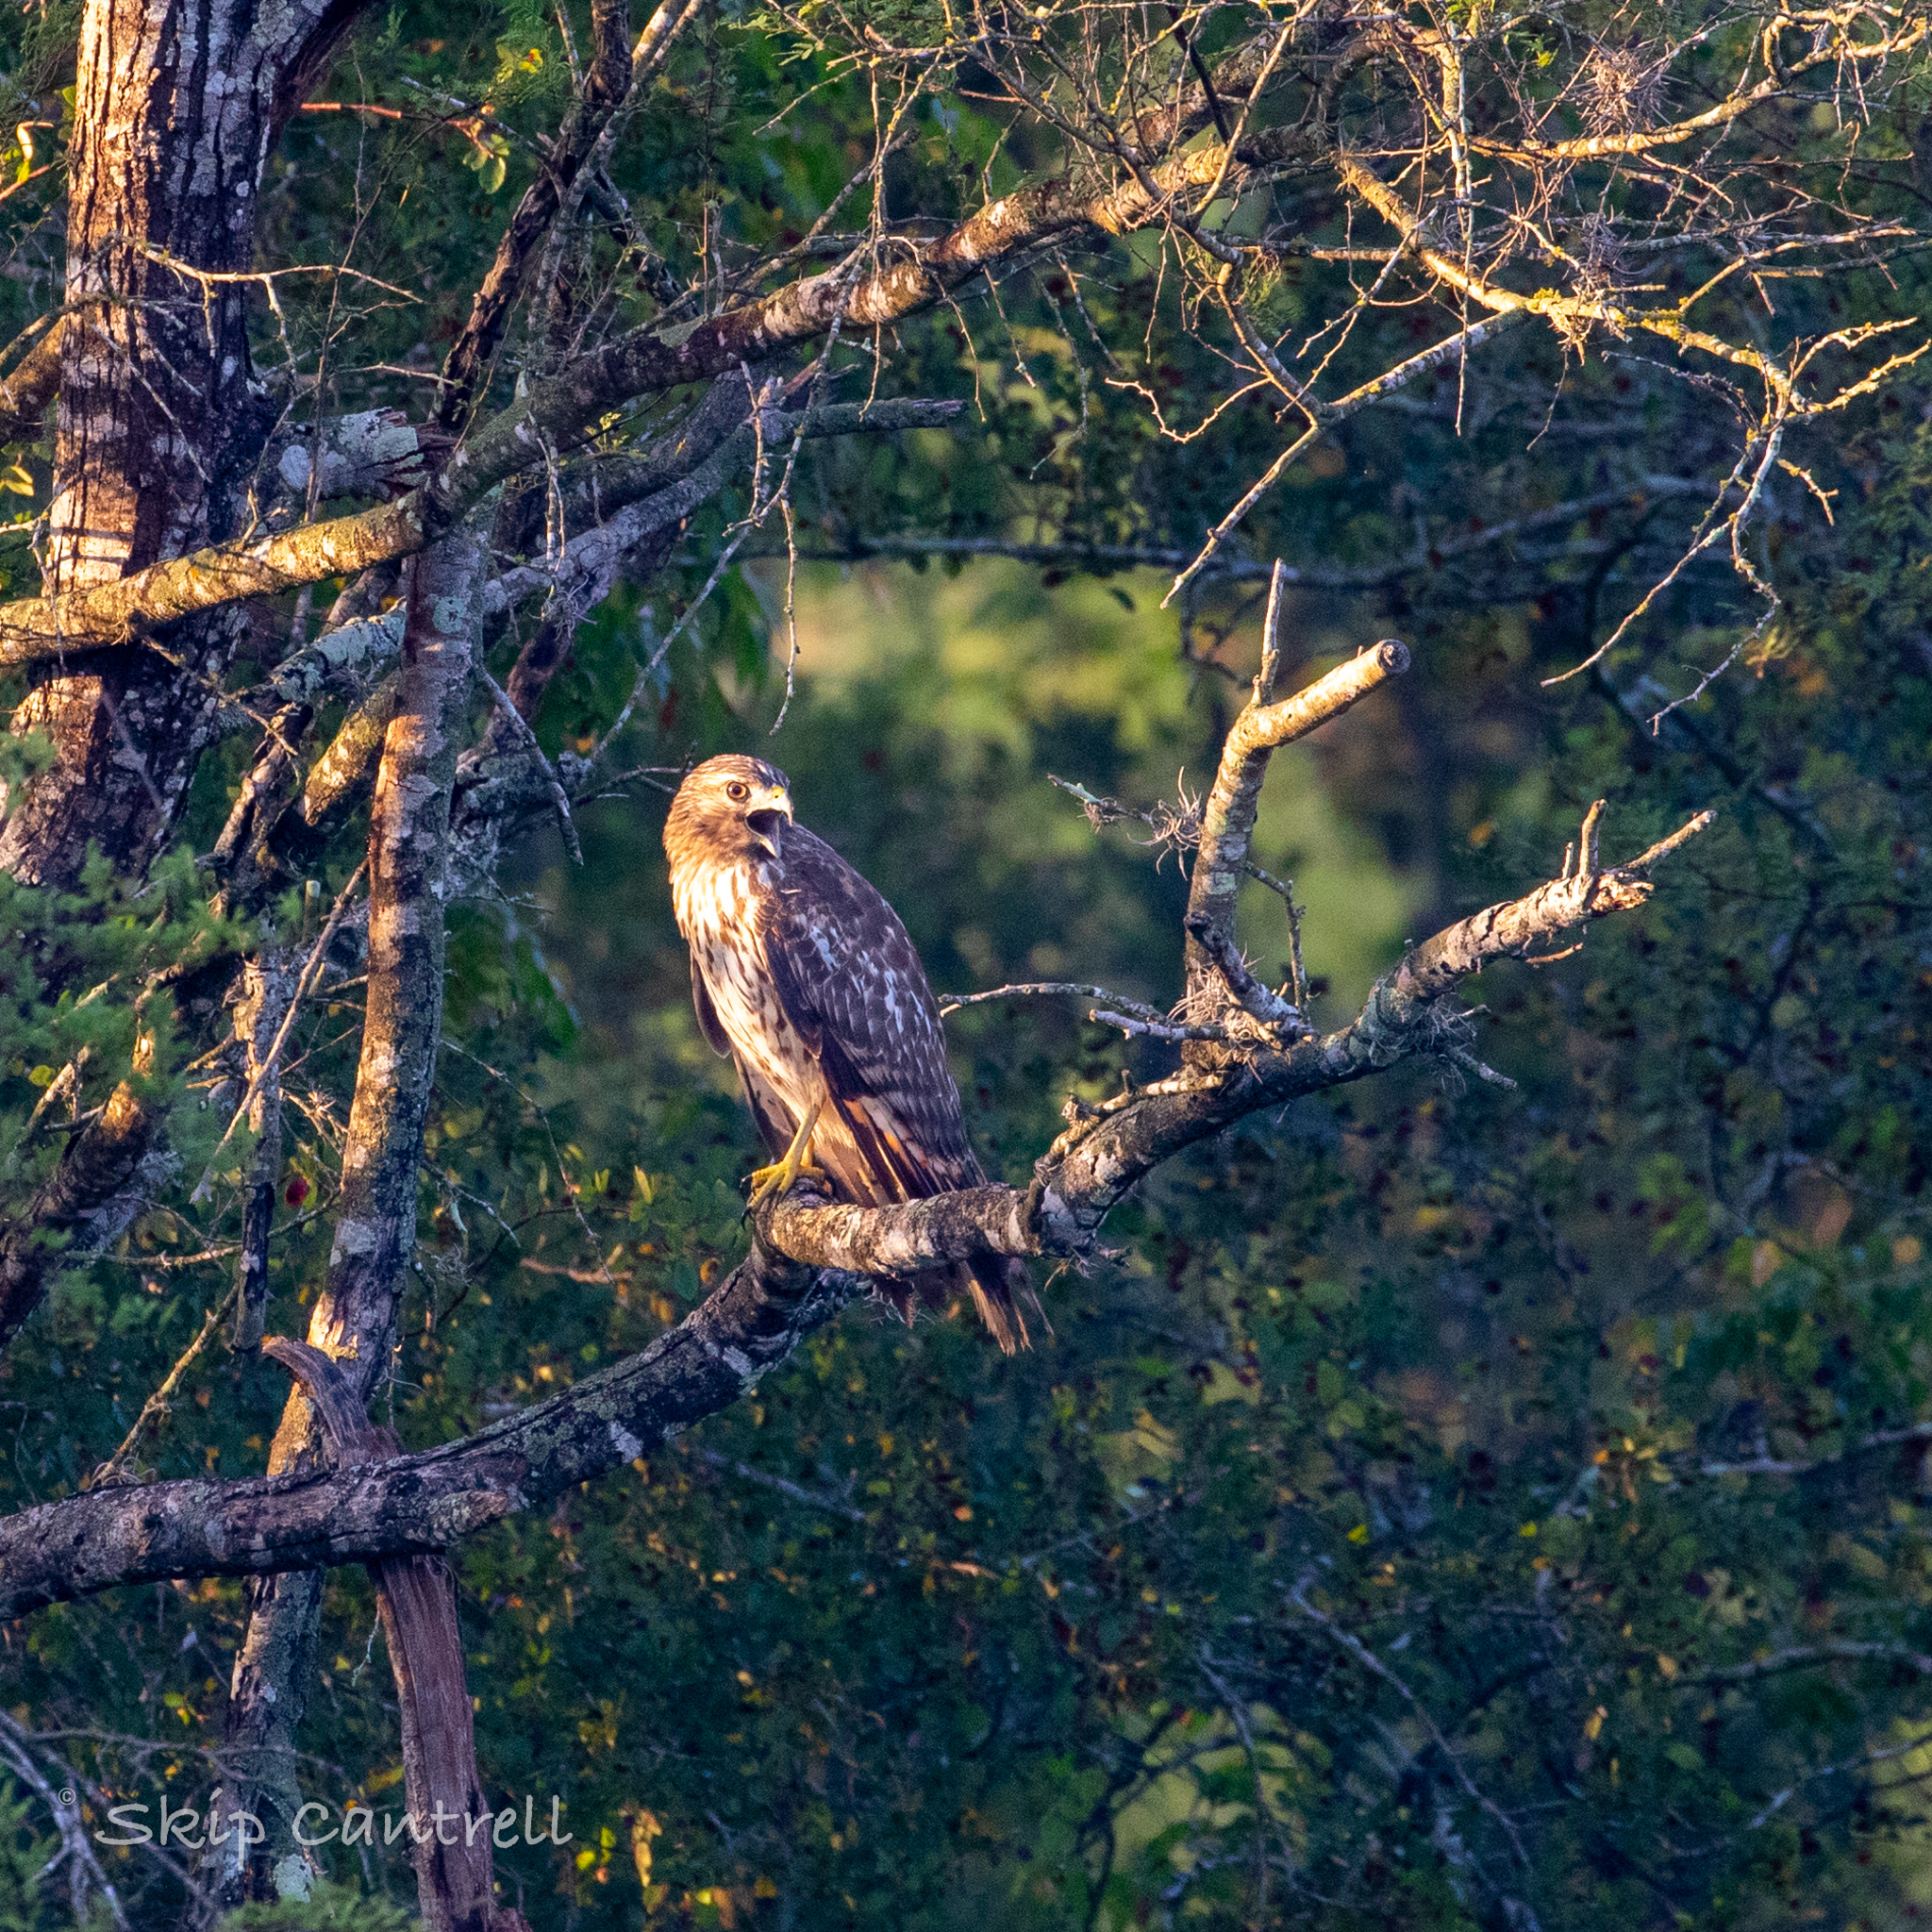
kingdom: Animalia
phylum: Chordata
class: Aves
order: Accipitriformes
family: Accipitridae
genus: Buteo
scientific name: Buteo lineatus
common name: Red-shouldered hawk
